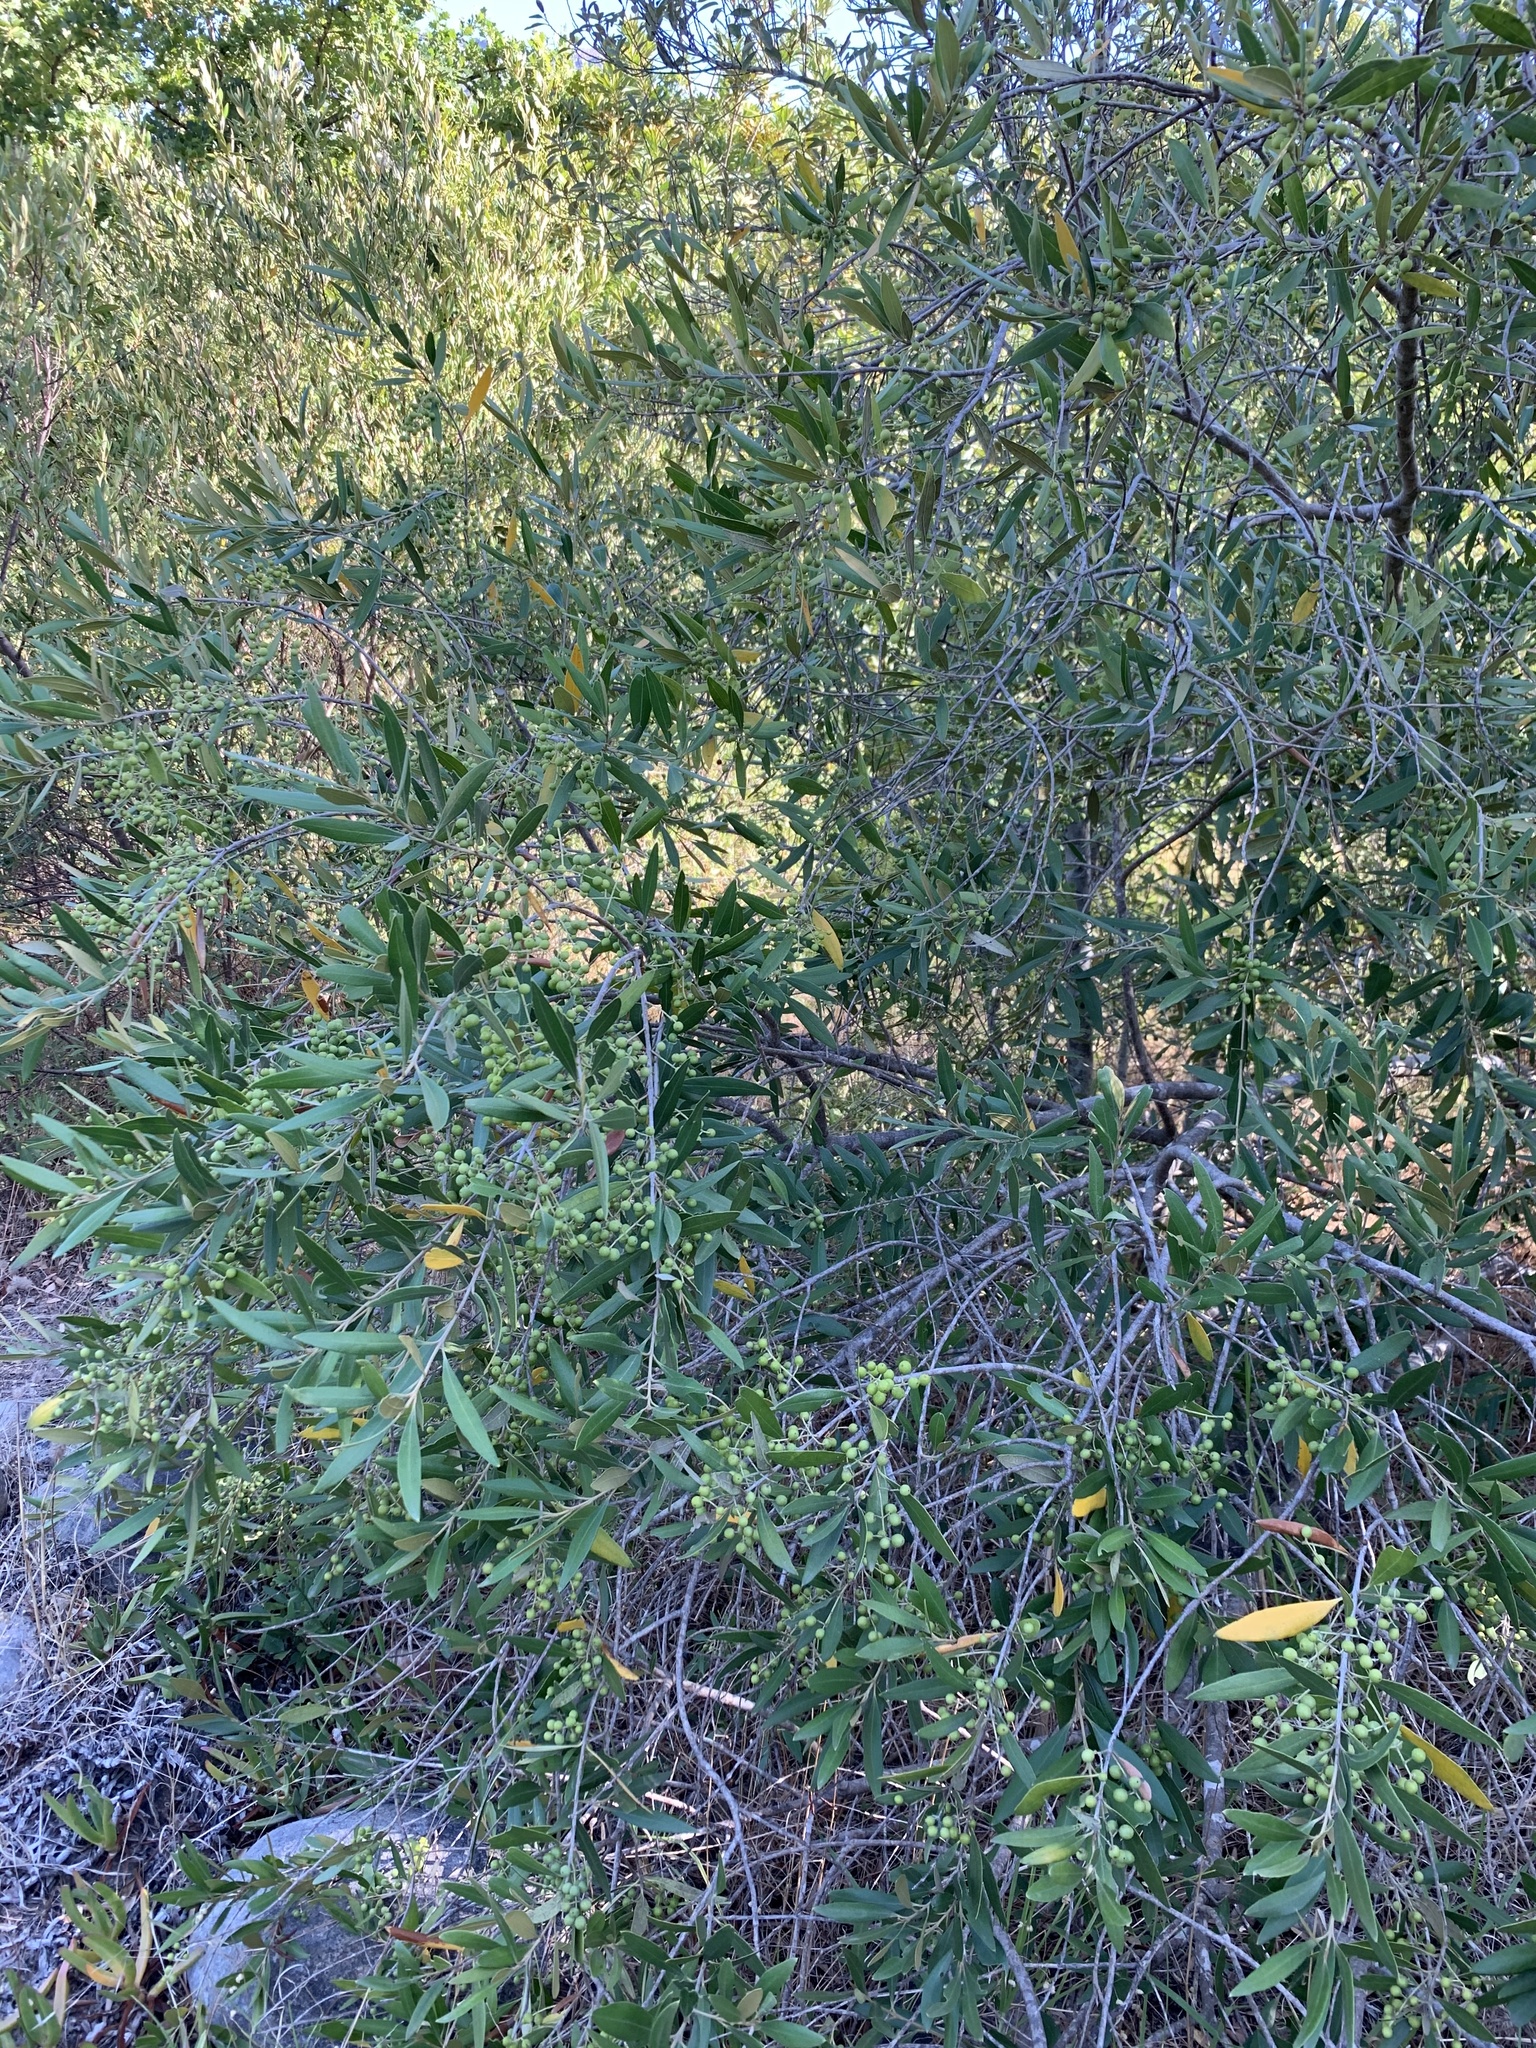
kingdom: Plantae
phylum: Tracheophyta
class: Magnoliopsida
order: Lamiales
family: Oleaceae
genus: Olea
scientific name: Olea europaea
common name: Olive
